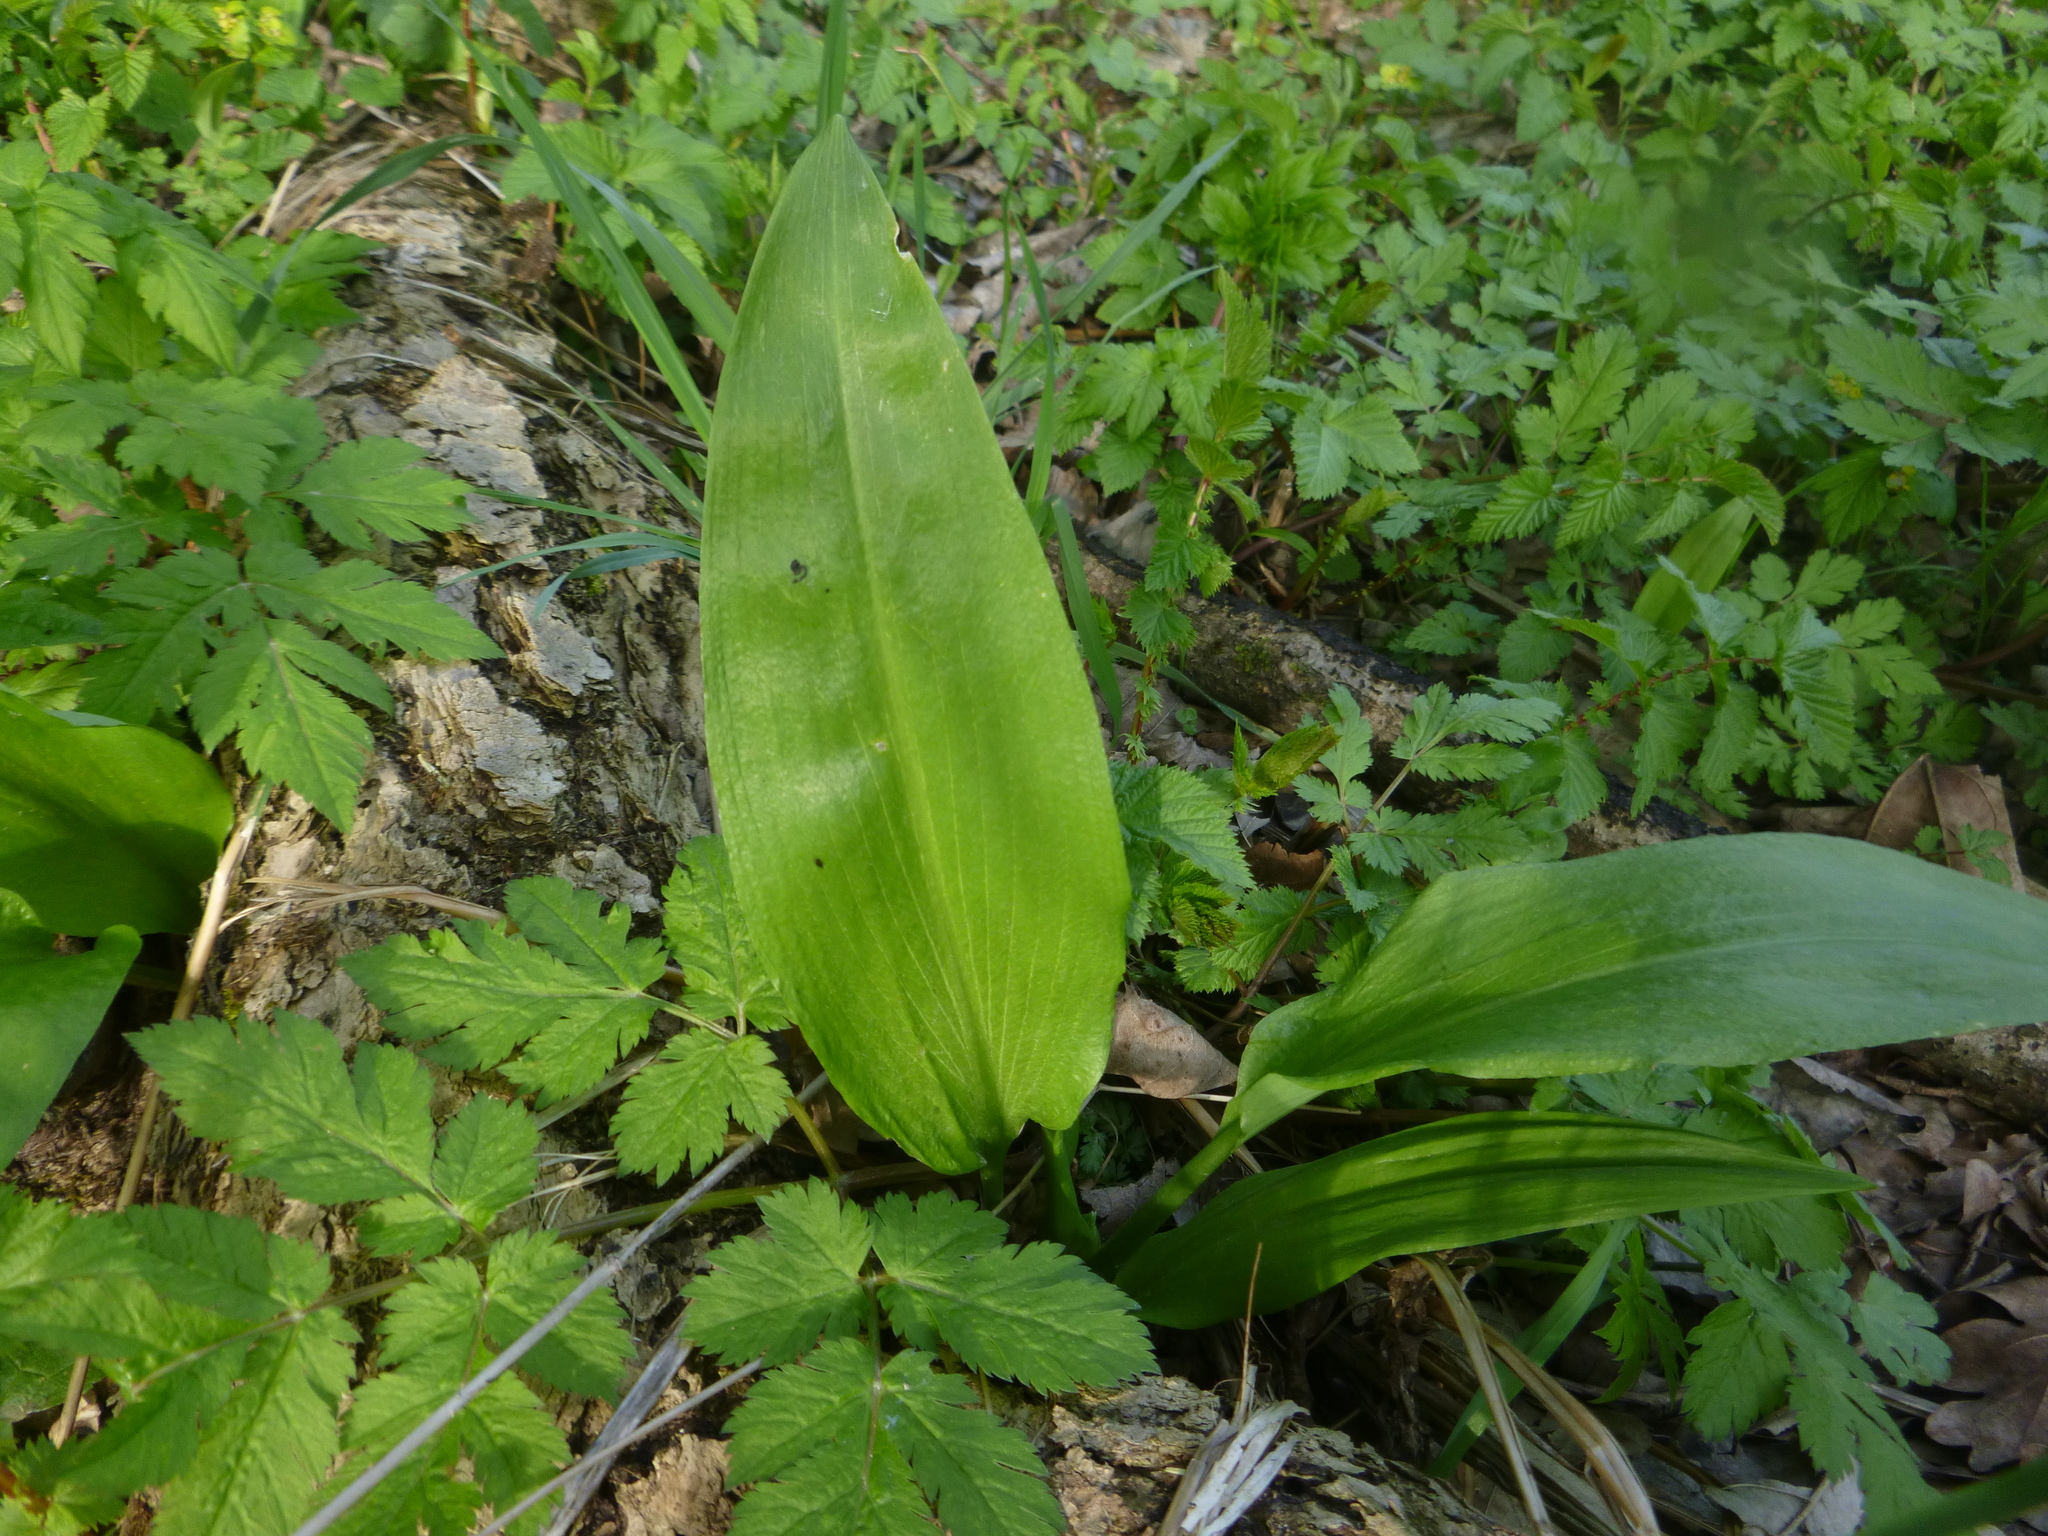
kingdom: Plantae
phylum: Tracheophyta
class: Liliopsida
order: Asparagales
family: Amaryllidaceae
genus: Allium
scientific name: Allium ursinum
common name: Ramsons
